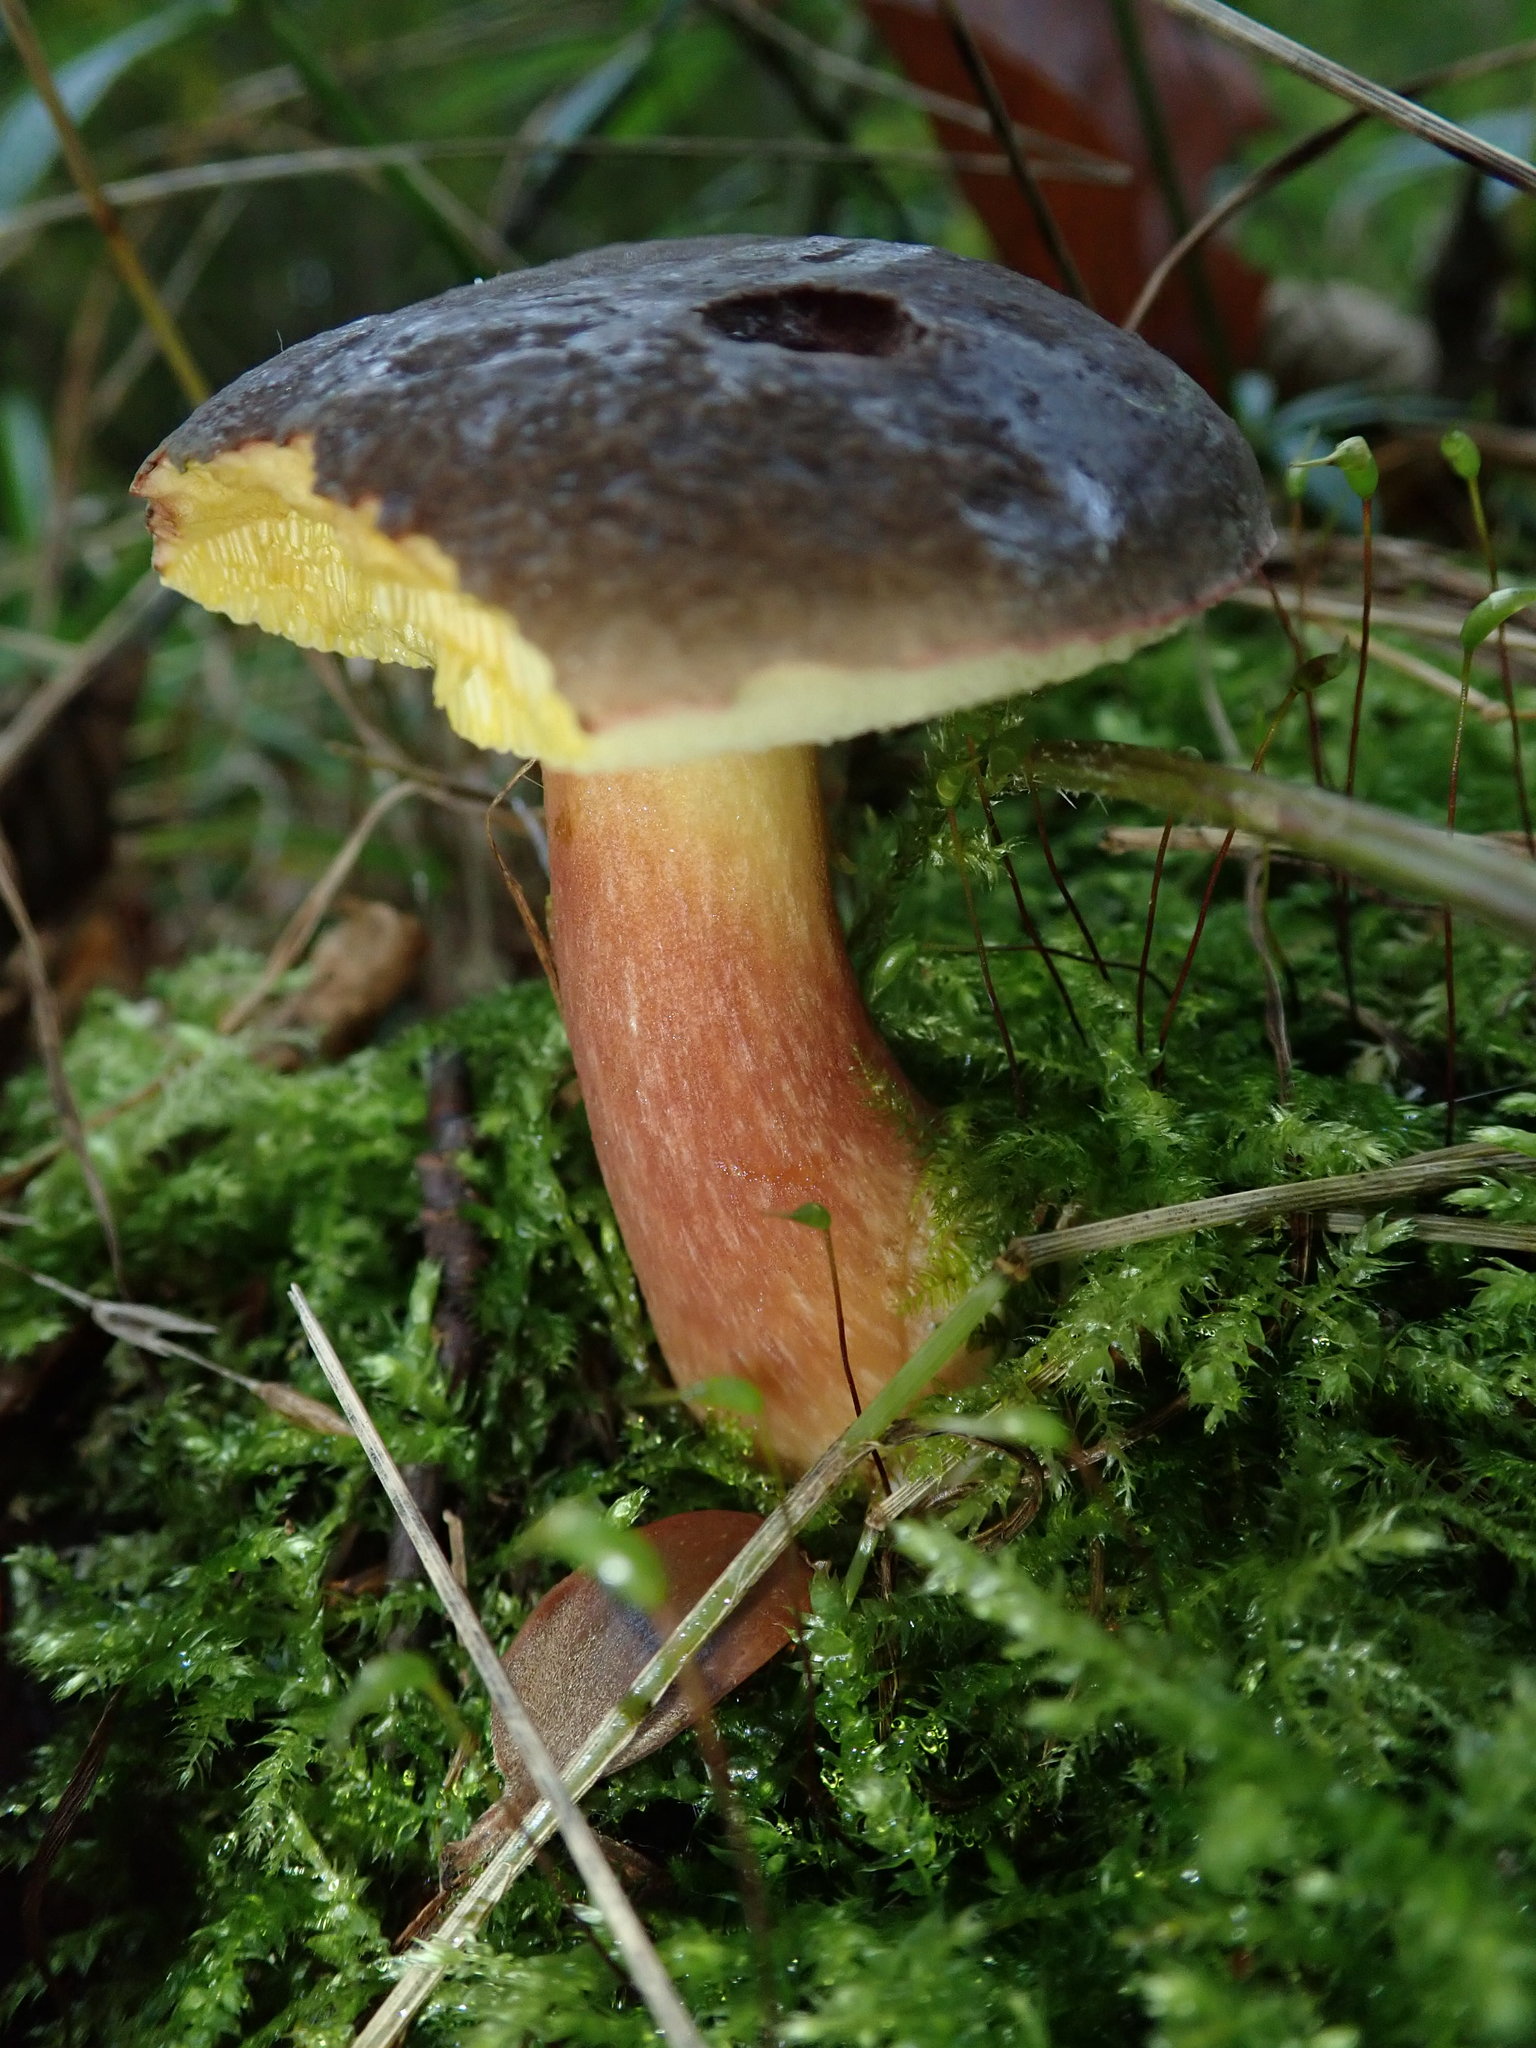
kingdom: Fungi
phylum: Basidiomycota
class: Agaricomycetes
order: Boletales
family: Boletaceae
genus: Xerocomellus
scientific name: Xerocomellus chrysenteron
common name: Red-cracking bolete
